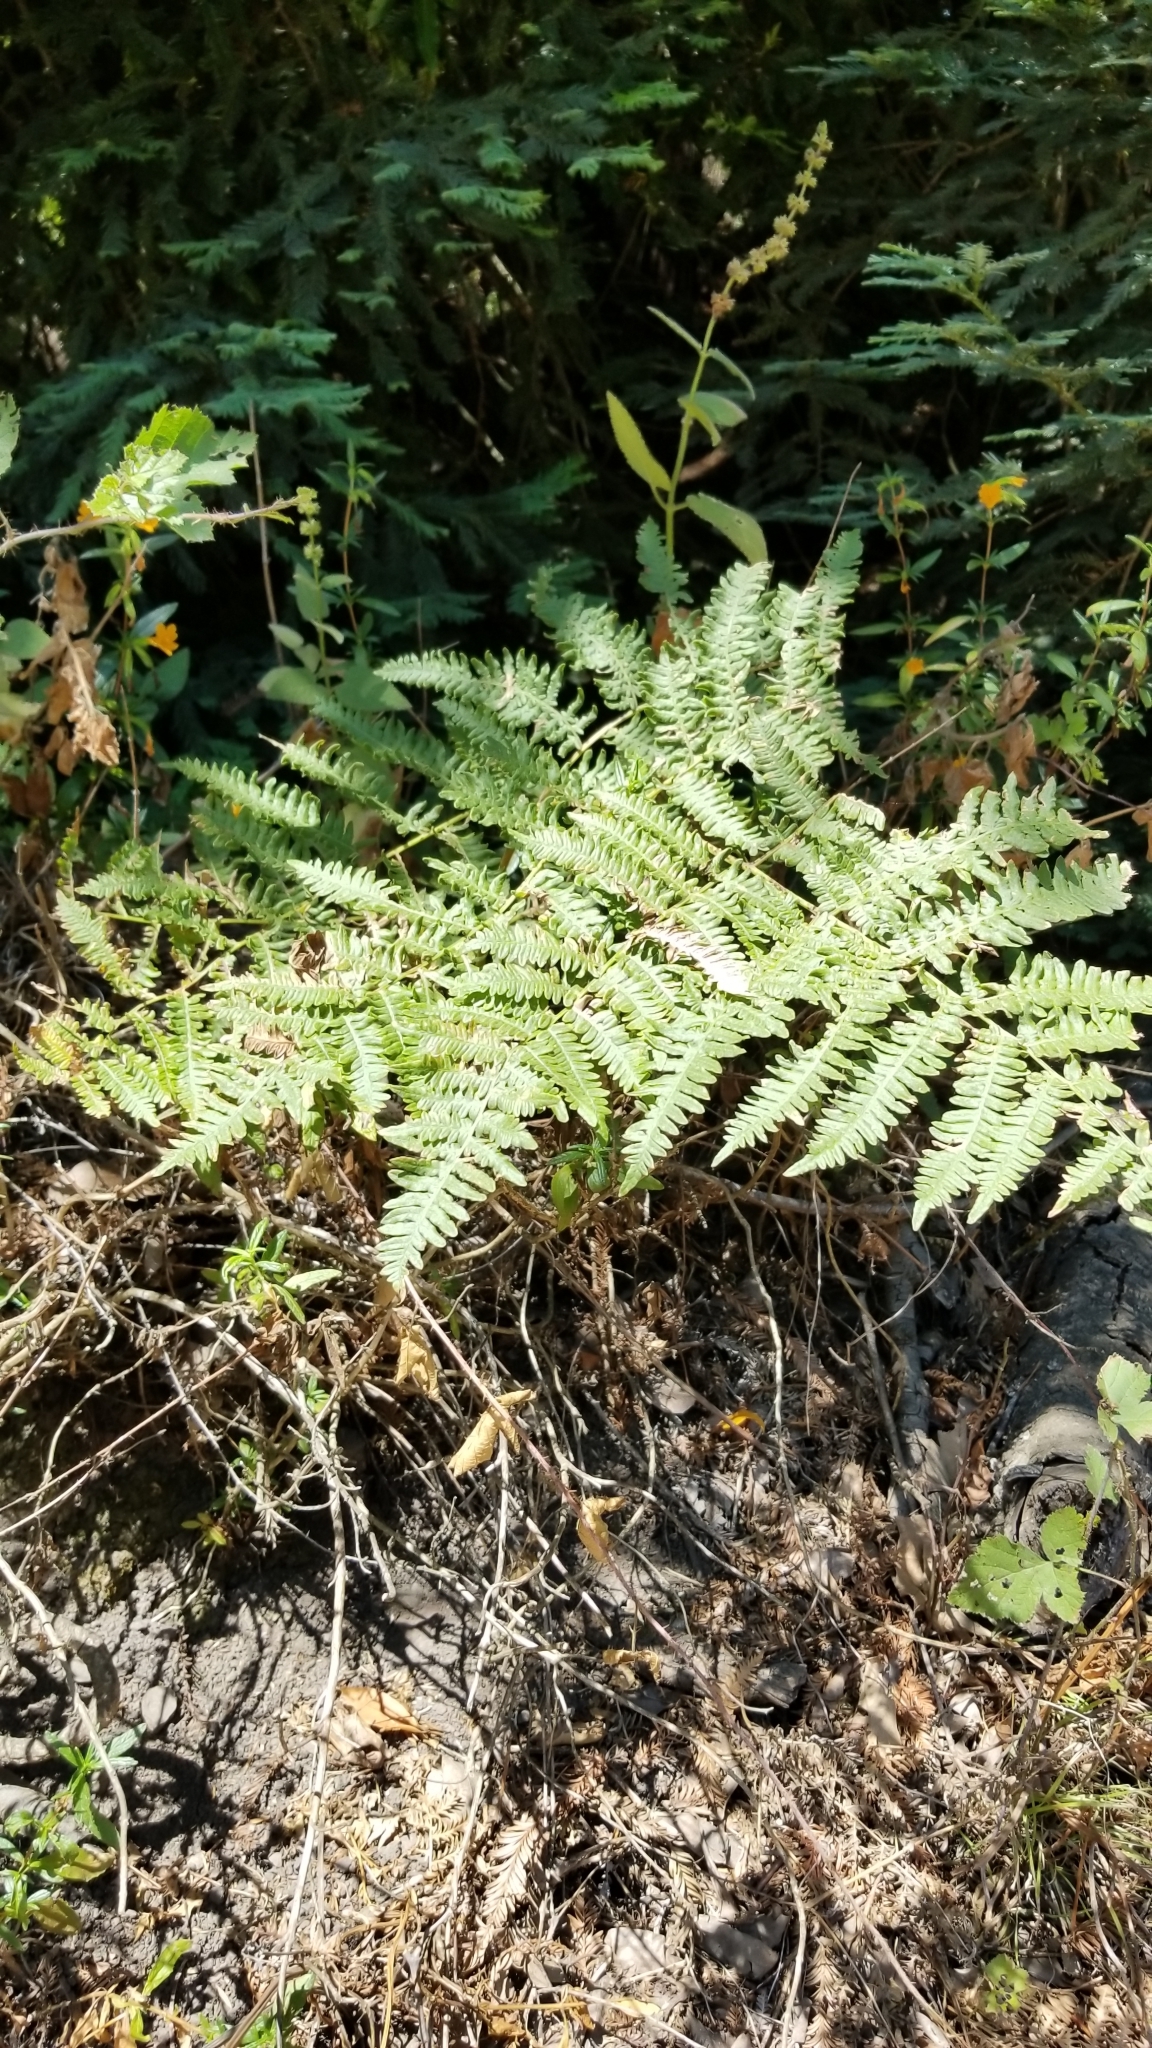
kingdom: Plantae
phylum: Tracheophyta
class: Polypodiopsida
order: Polypodiales
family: Dennstaedtiaceae
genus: Pteridium
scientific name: Pteridium aquilinum
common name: Bracken
